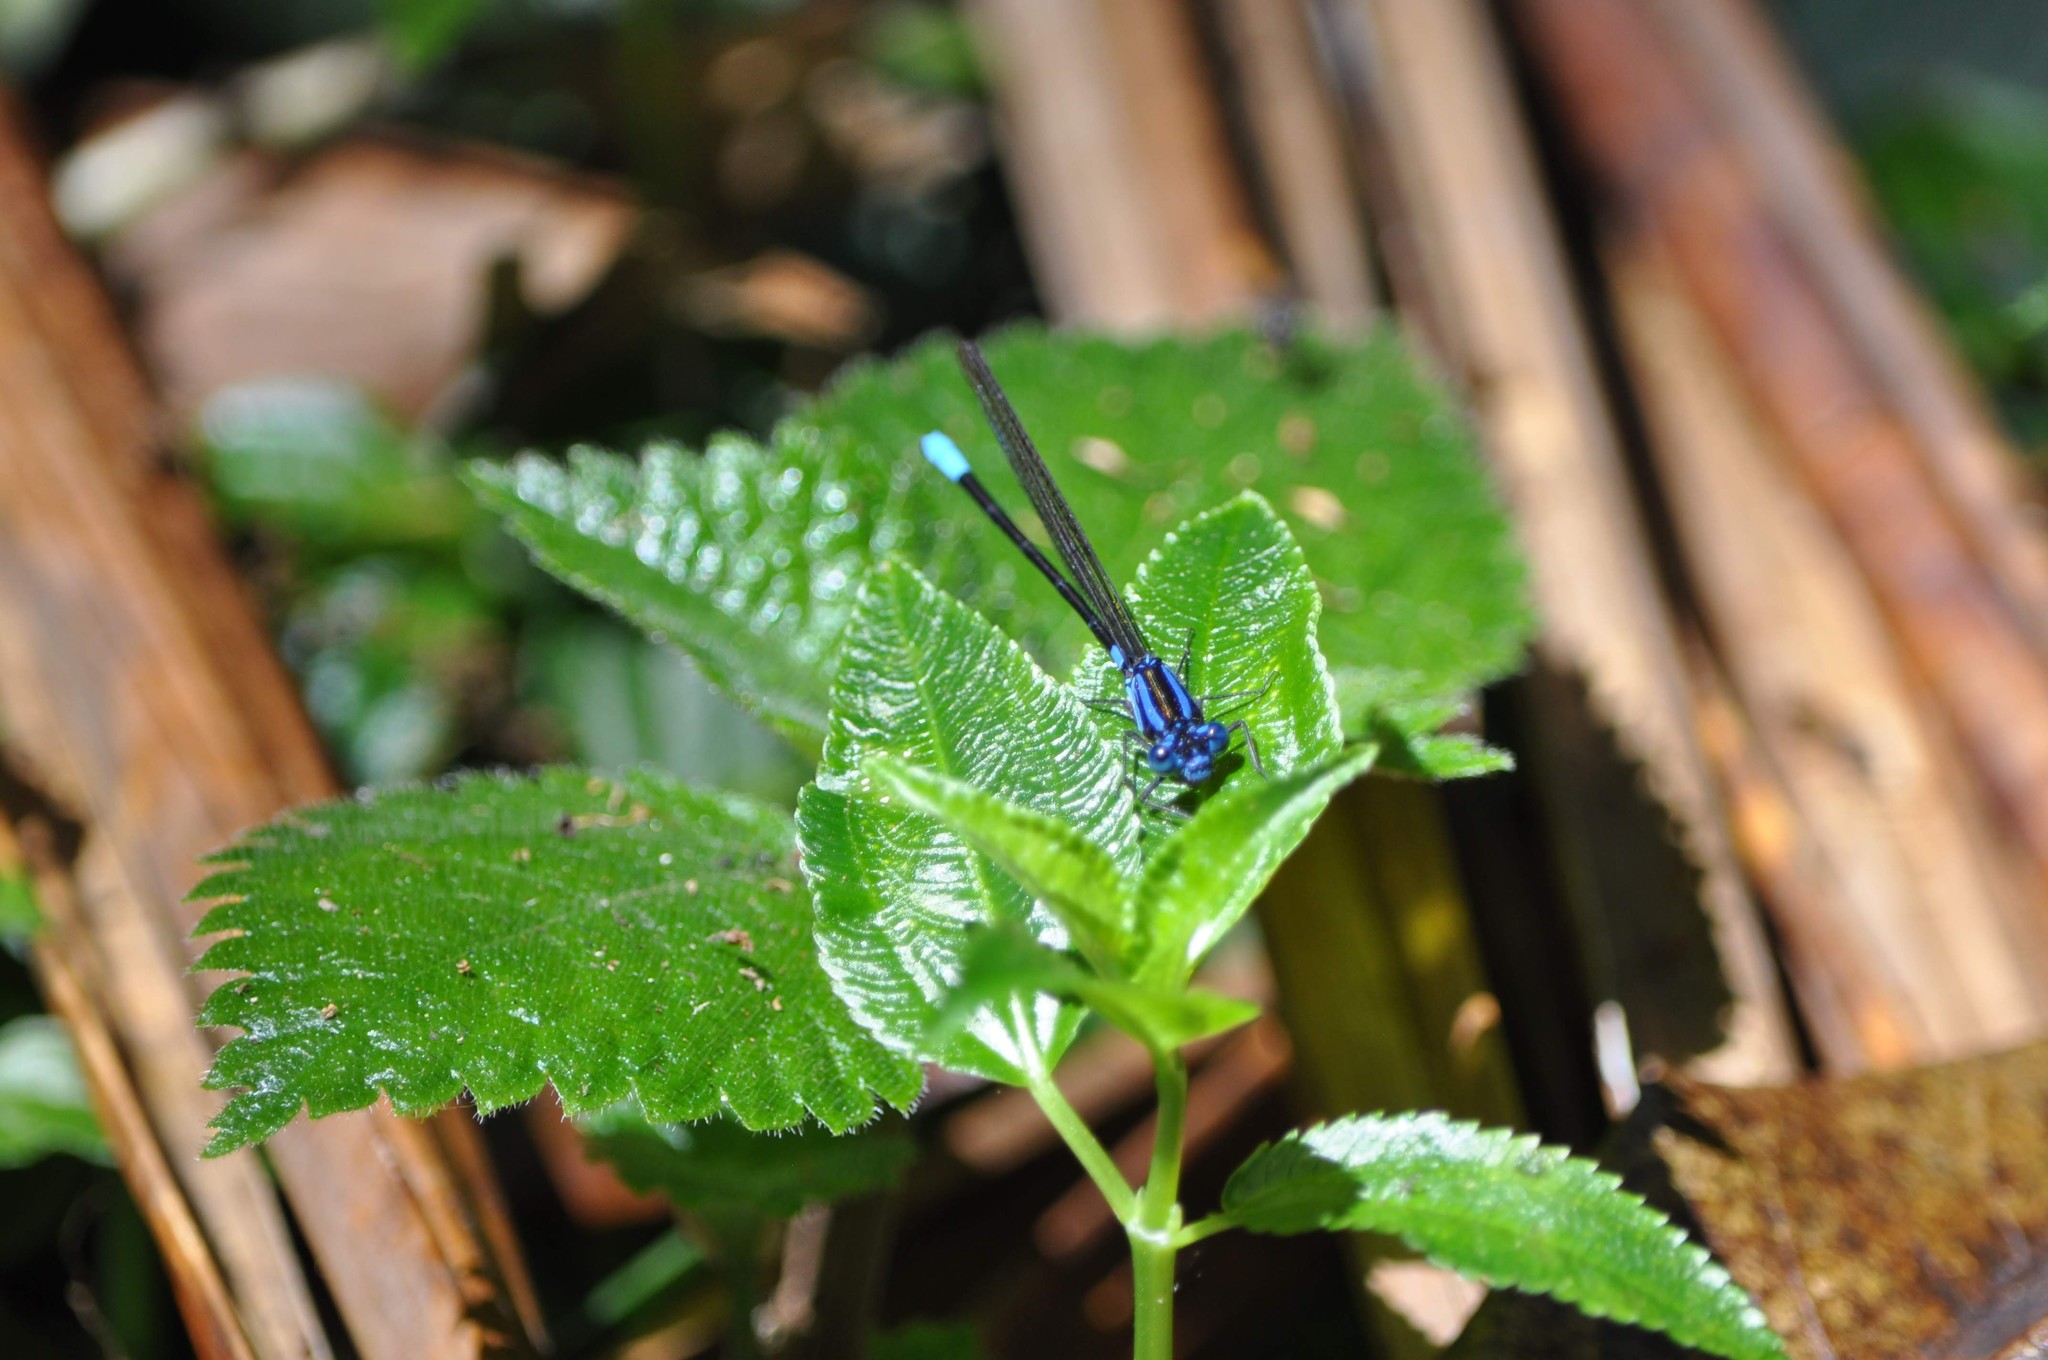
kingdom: Animalia
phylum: Arthropoda
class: Insecta
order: Odonata
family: Coenagrionidae
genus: Argia
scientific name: Argia terira
